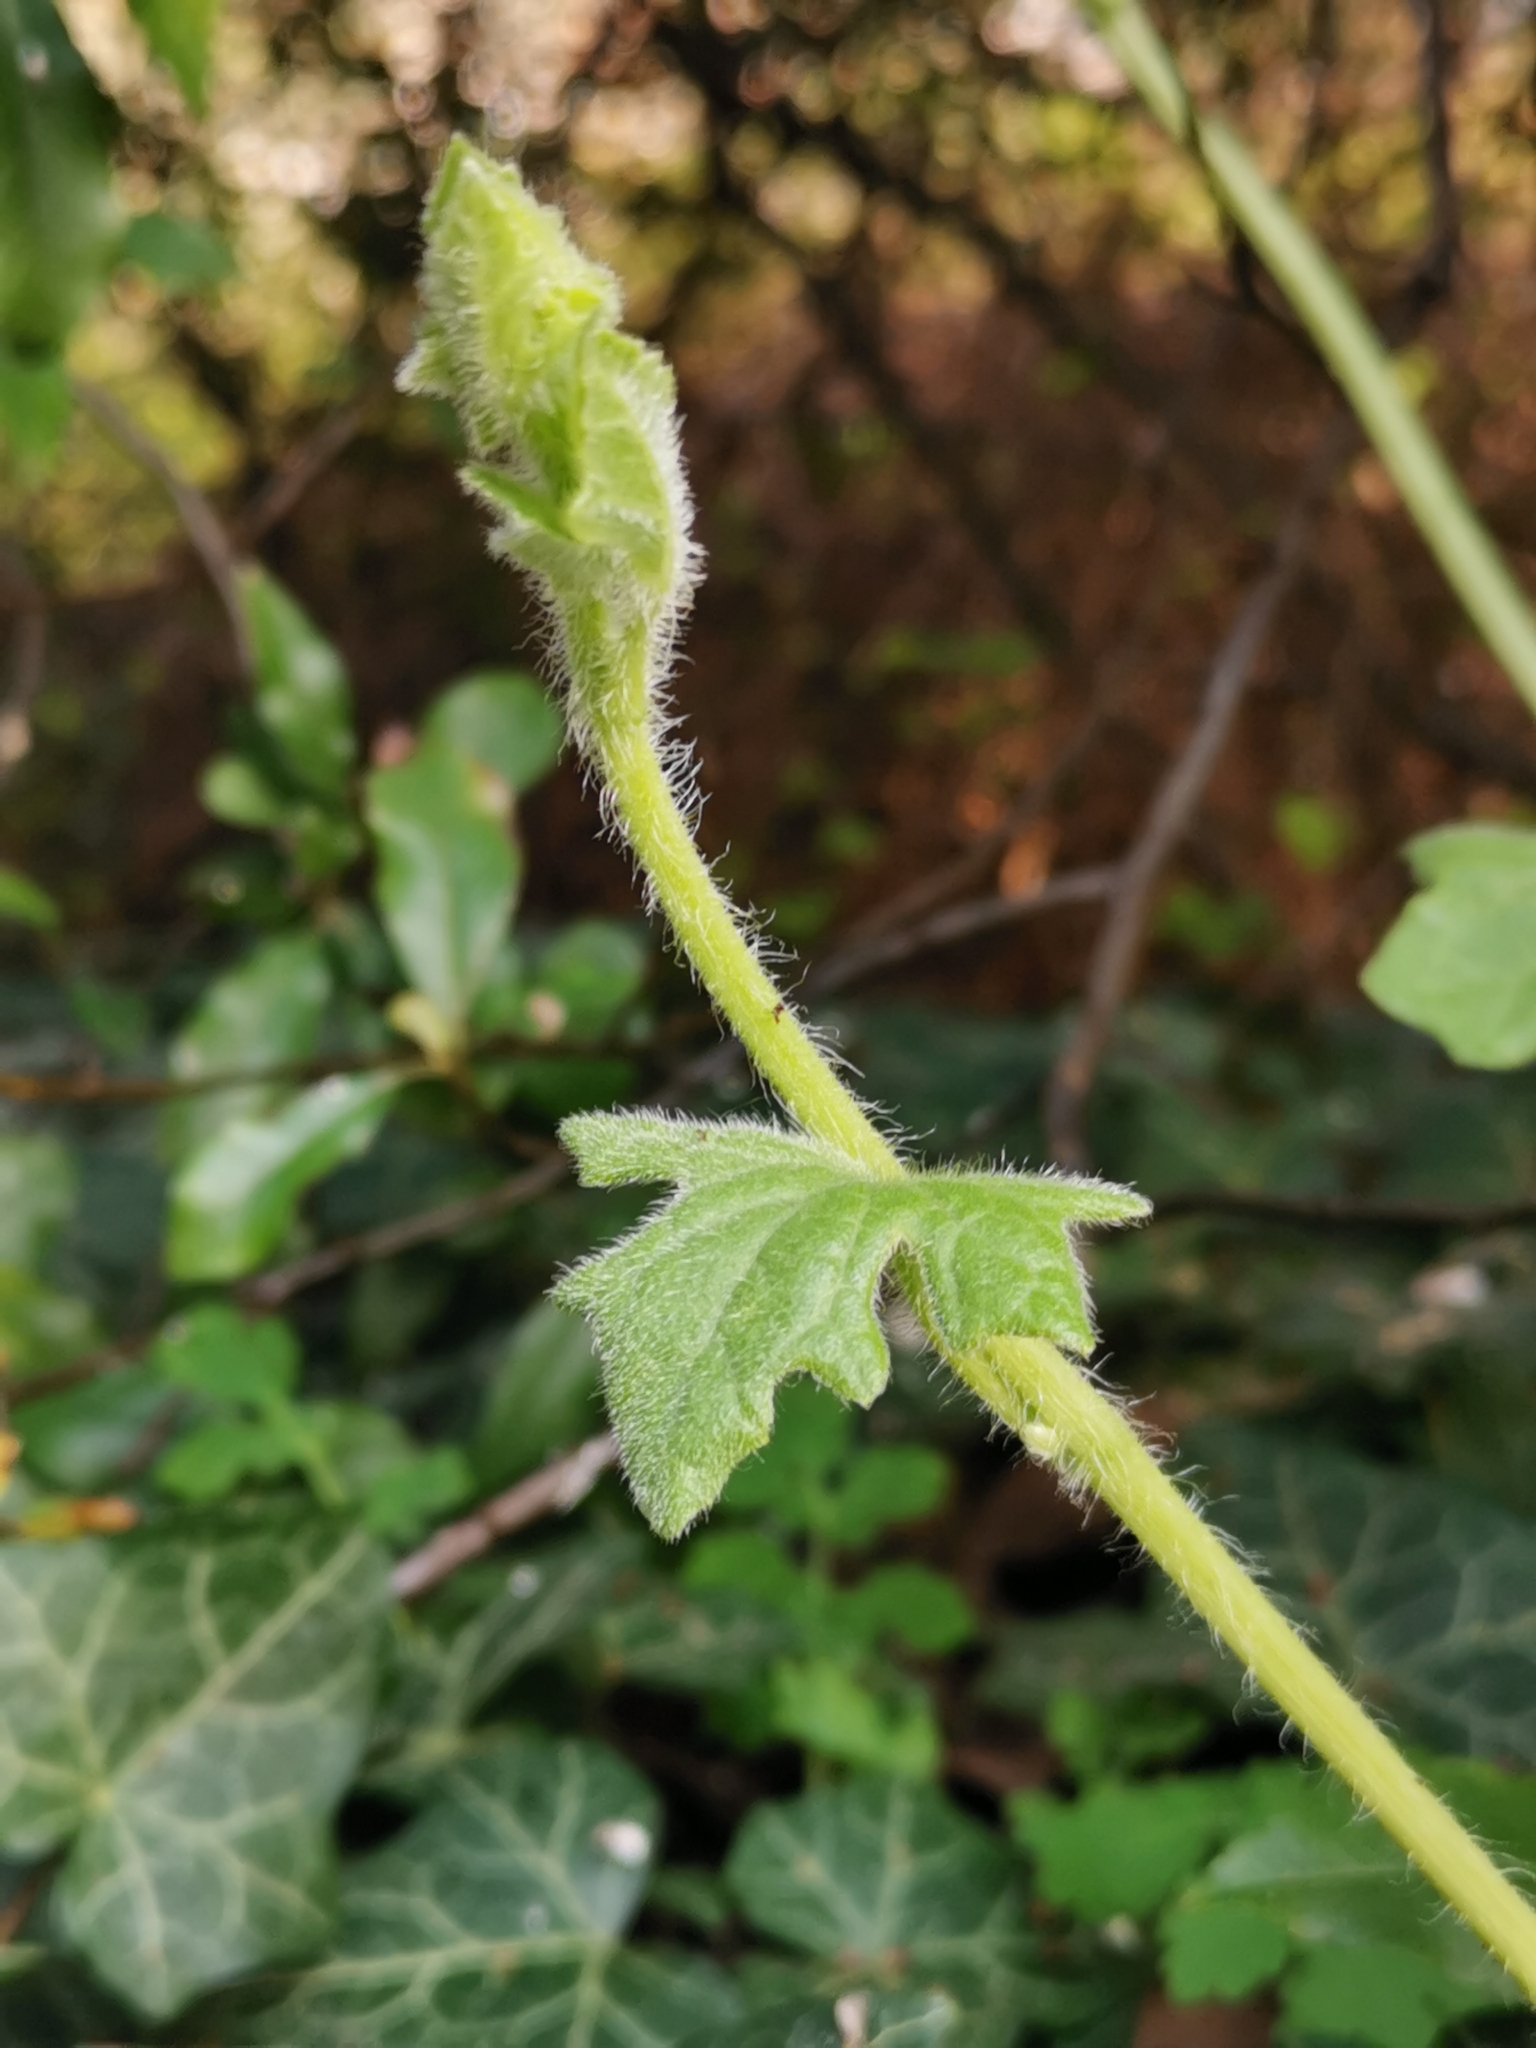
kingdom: Plantae
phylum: Tracheophyta
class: Magnoliopsida
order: Cucurbitales
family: Cucurbitaceae
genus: Bryonia
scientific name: Bryonia cretica
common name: Cretan bryony
